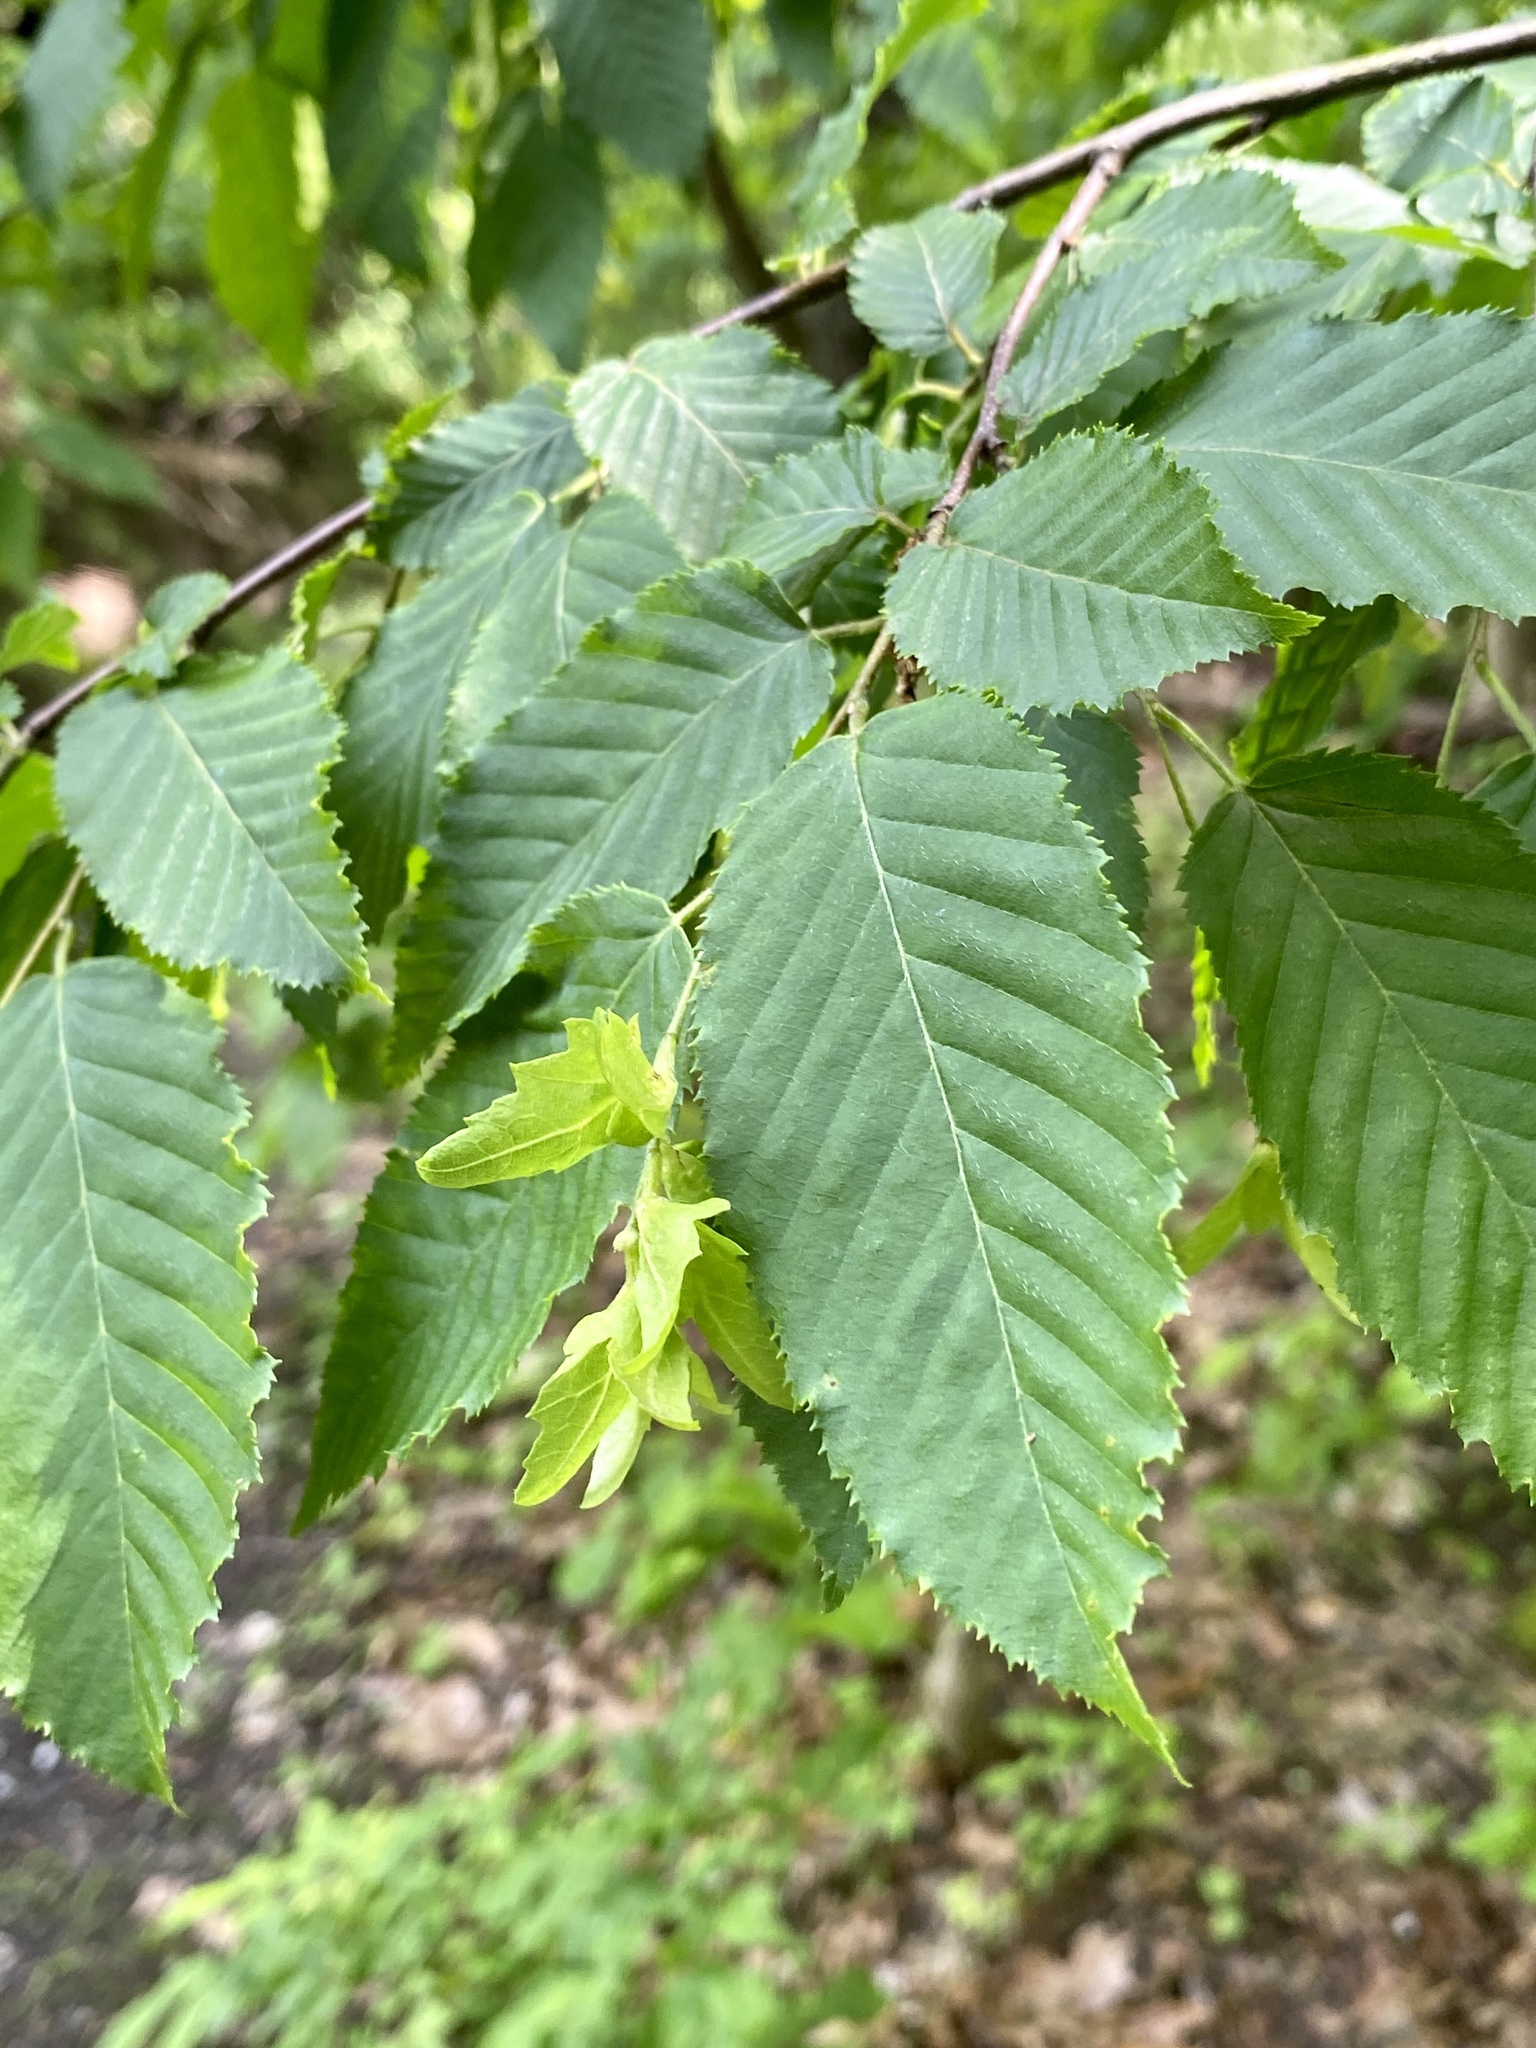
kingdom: Plantae
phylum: Tracheophyta
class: Magnoliopsida
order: Fagales
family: Betulaceae
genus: Carpinus
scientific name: Carpinus caroliniana
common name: American hornbeam
